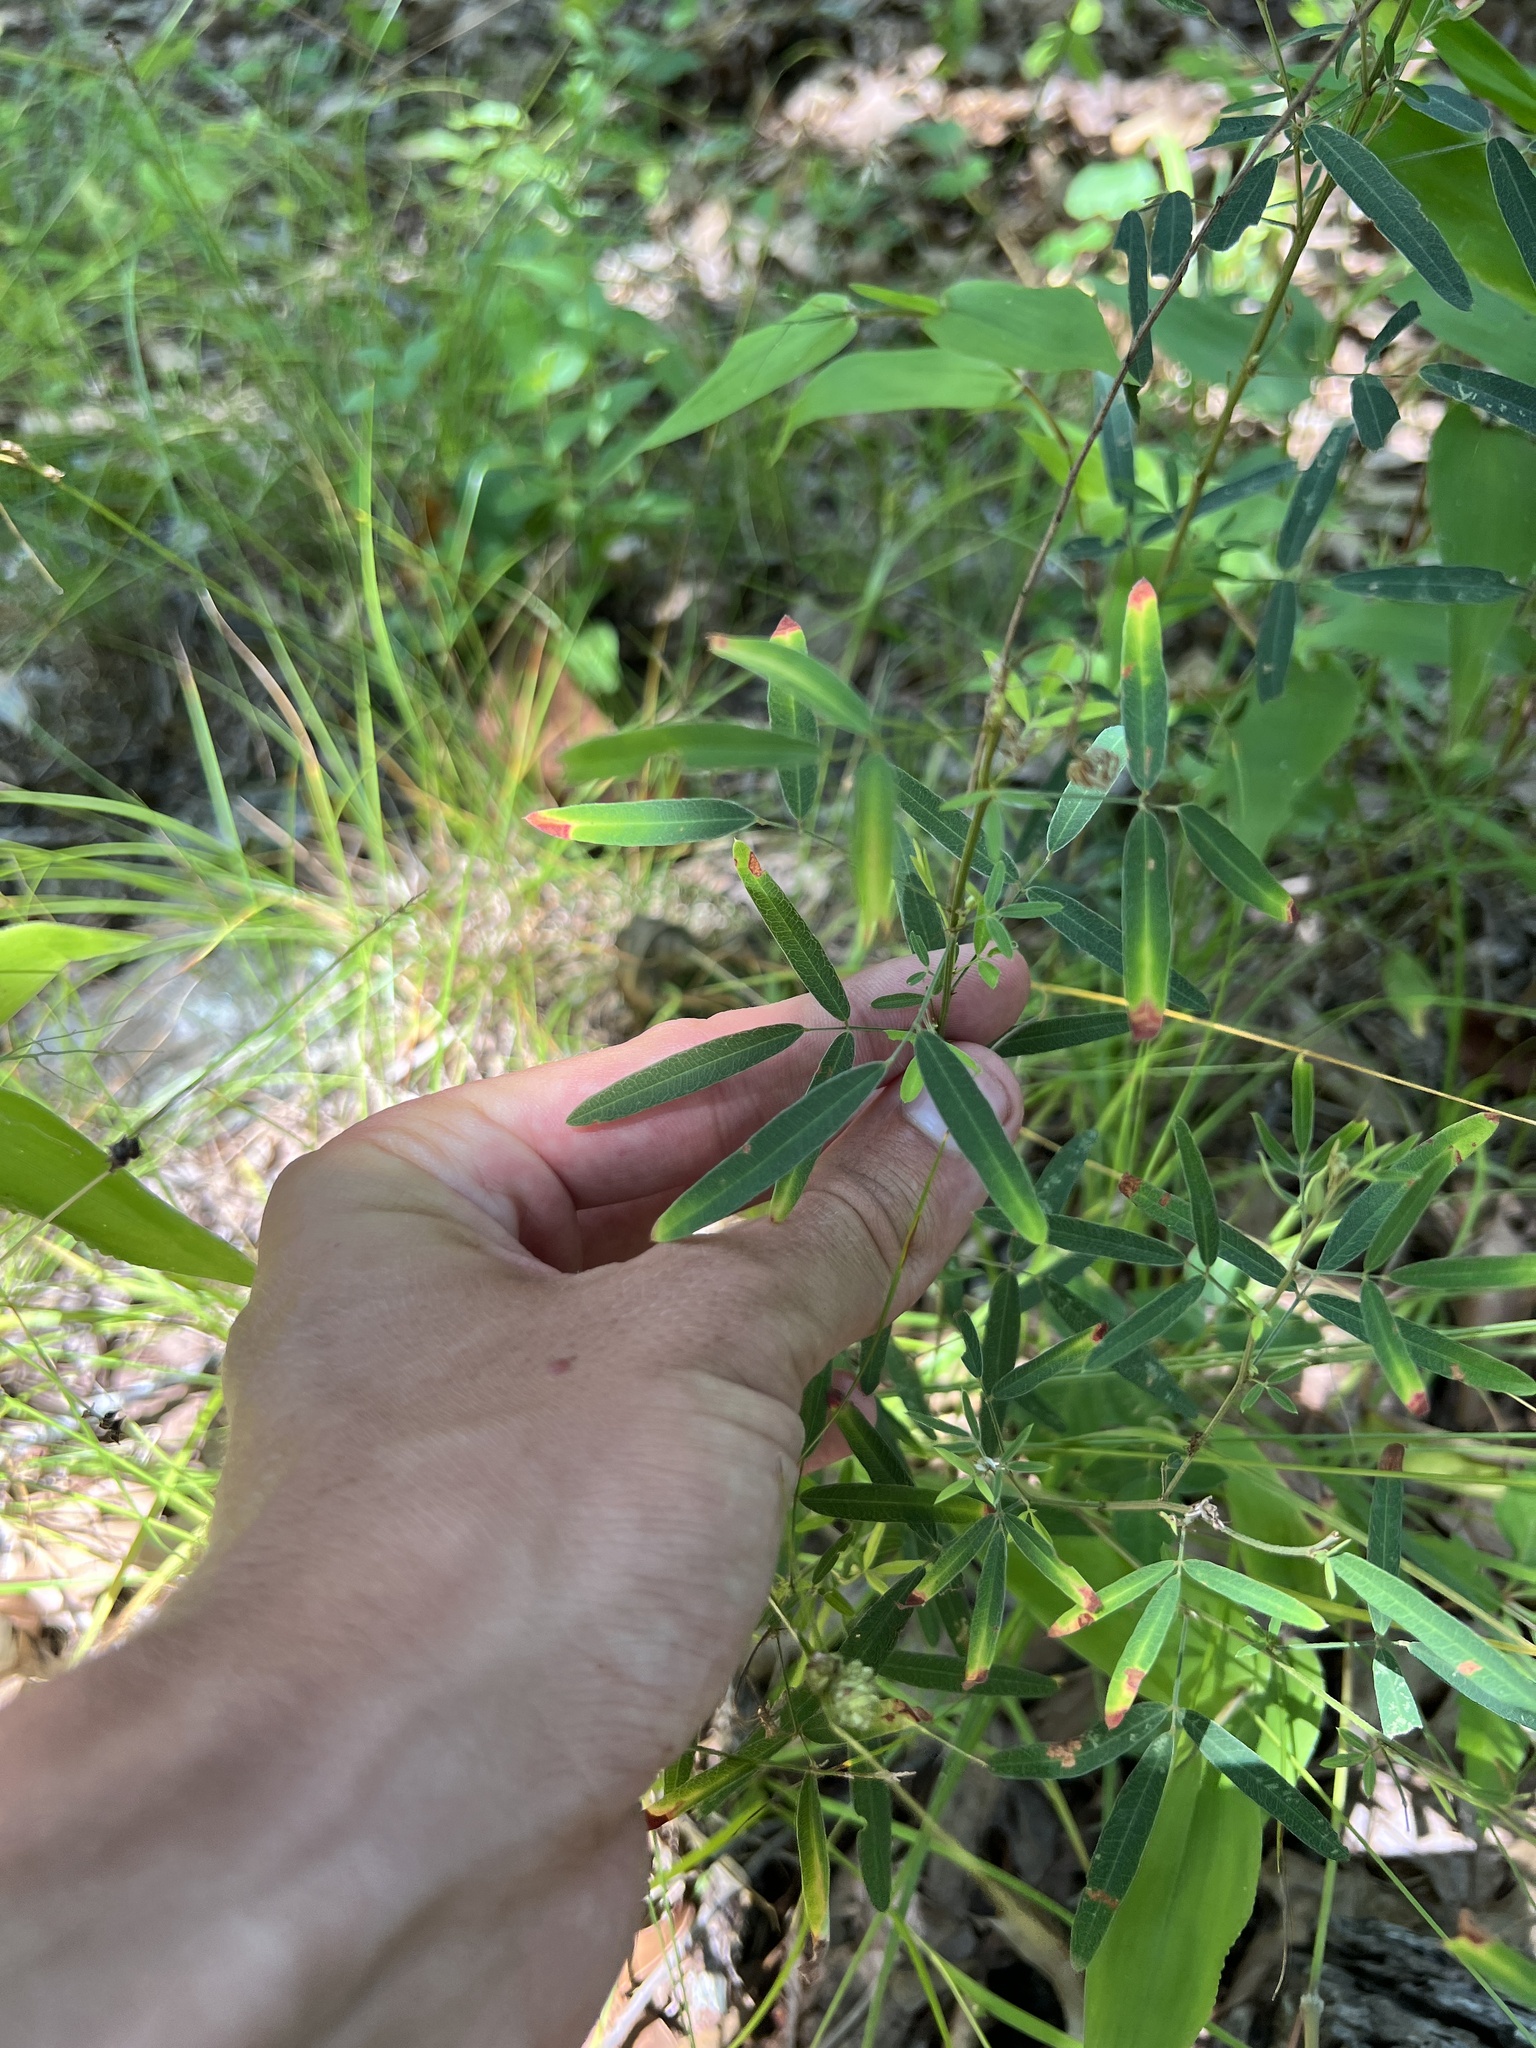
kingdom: Plantae
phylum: Tracheophyta
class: Magnoliopsida
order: Fabales
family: Fabaceae
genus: Lespedeza
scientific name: Lespedeza virginica
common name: Slender bush-clover
